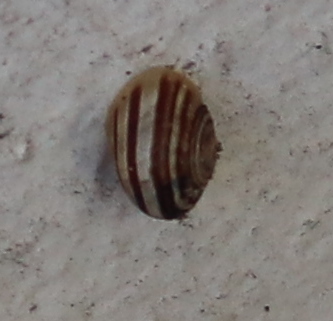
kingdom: Animalia
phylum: Mollusca
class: Gastropoda
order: Stylommatophora
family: Helicidae
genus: Eobania
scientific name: Eobania vermiculata
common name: Chocolateband snail
